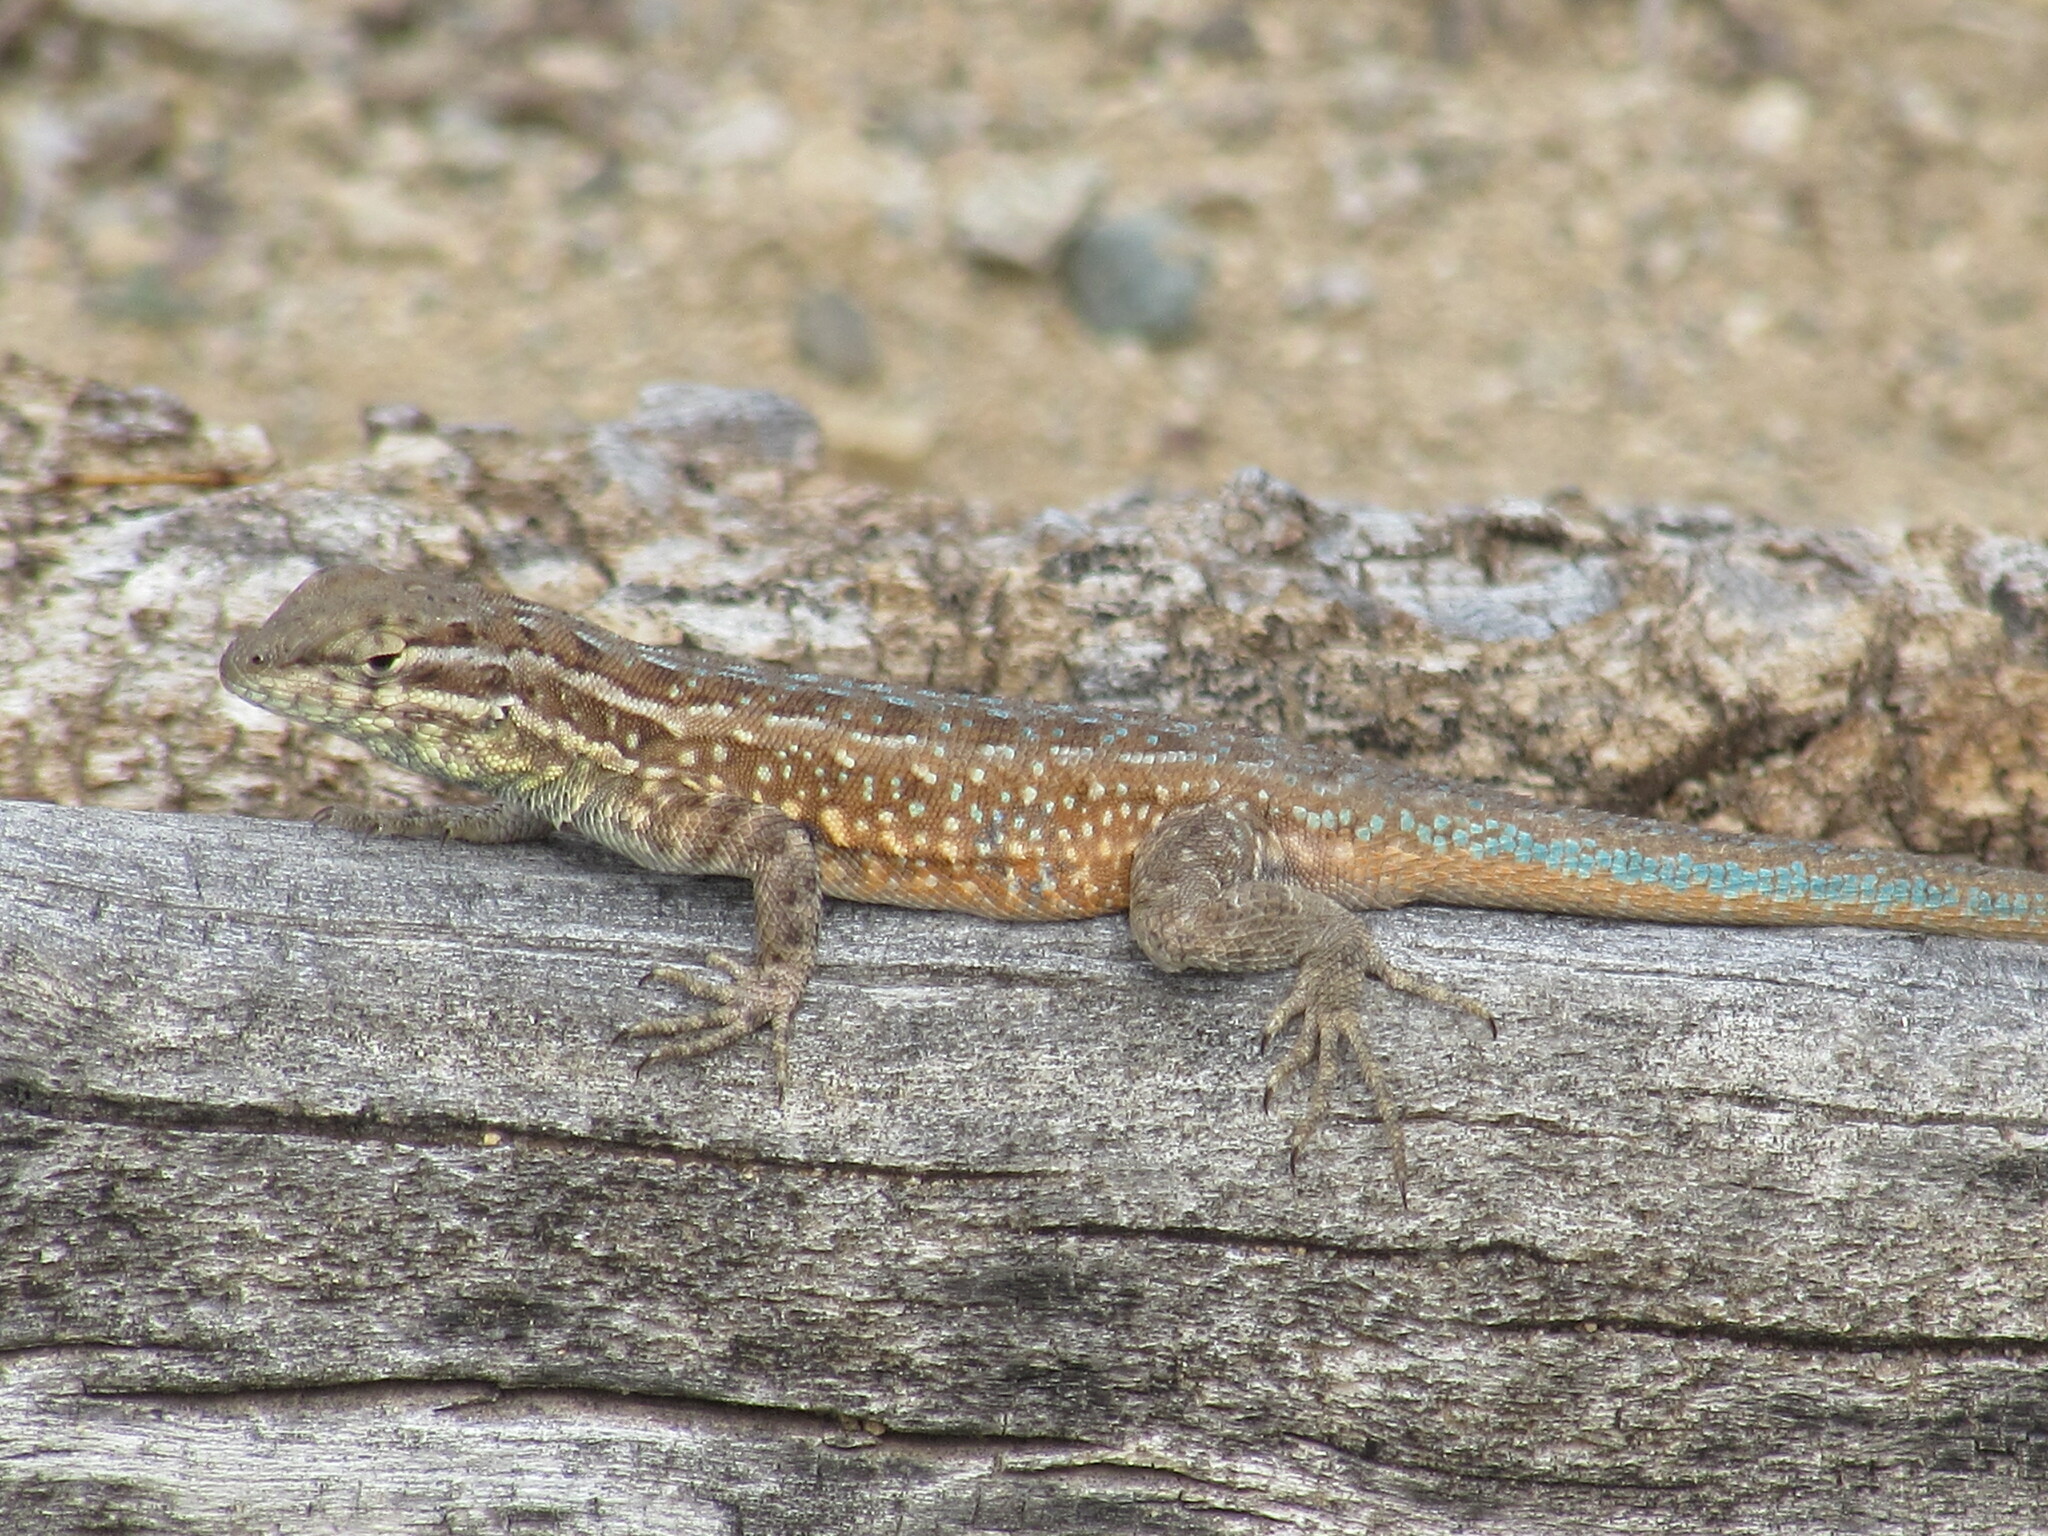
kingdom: Animalia
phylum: Chordata
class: Squamata
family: Phrynosomatidae
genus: Uta
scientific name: Uta stansburiana
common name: Side-blotched lizard
